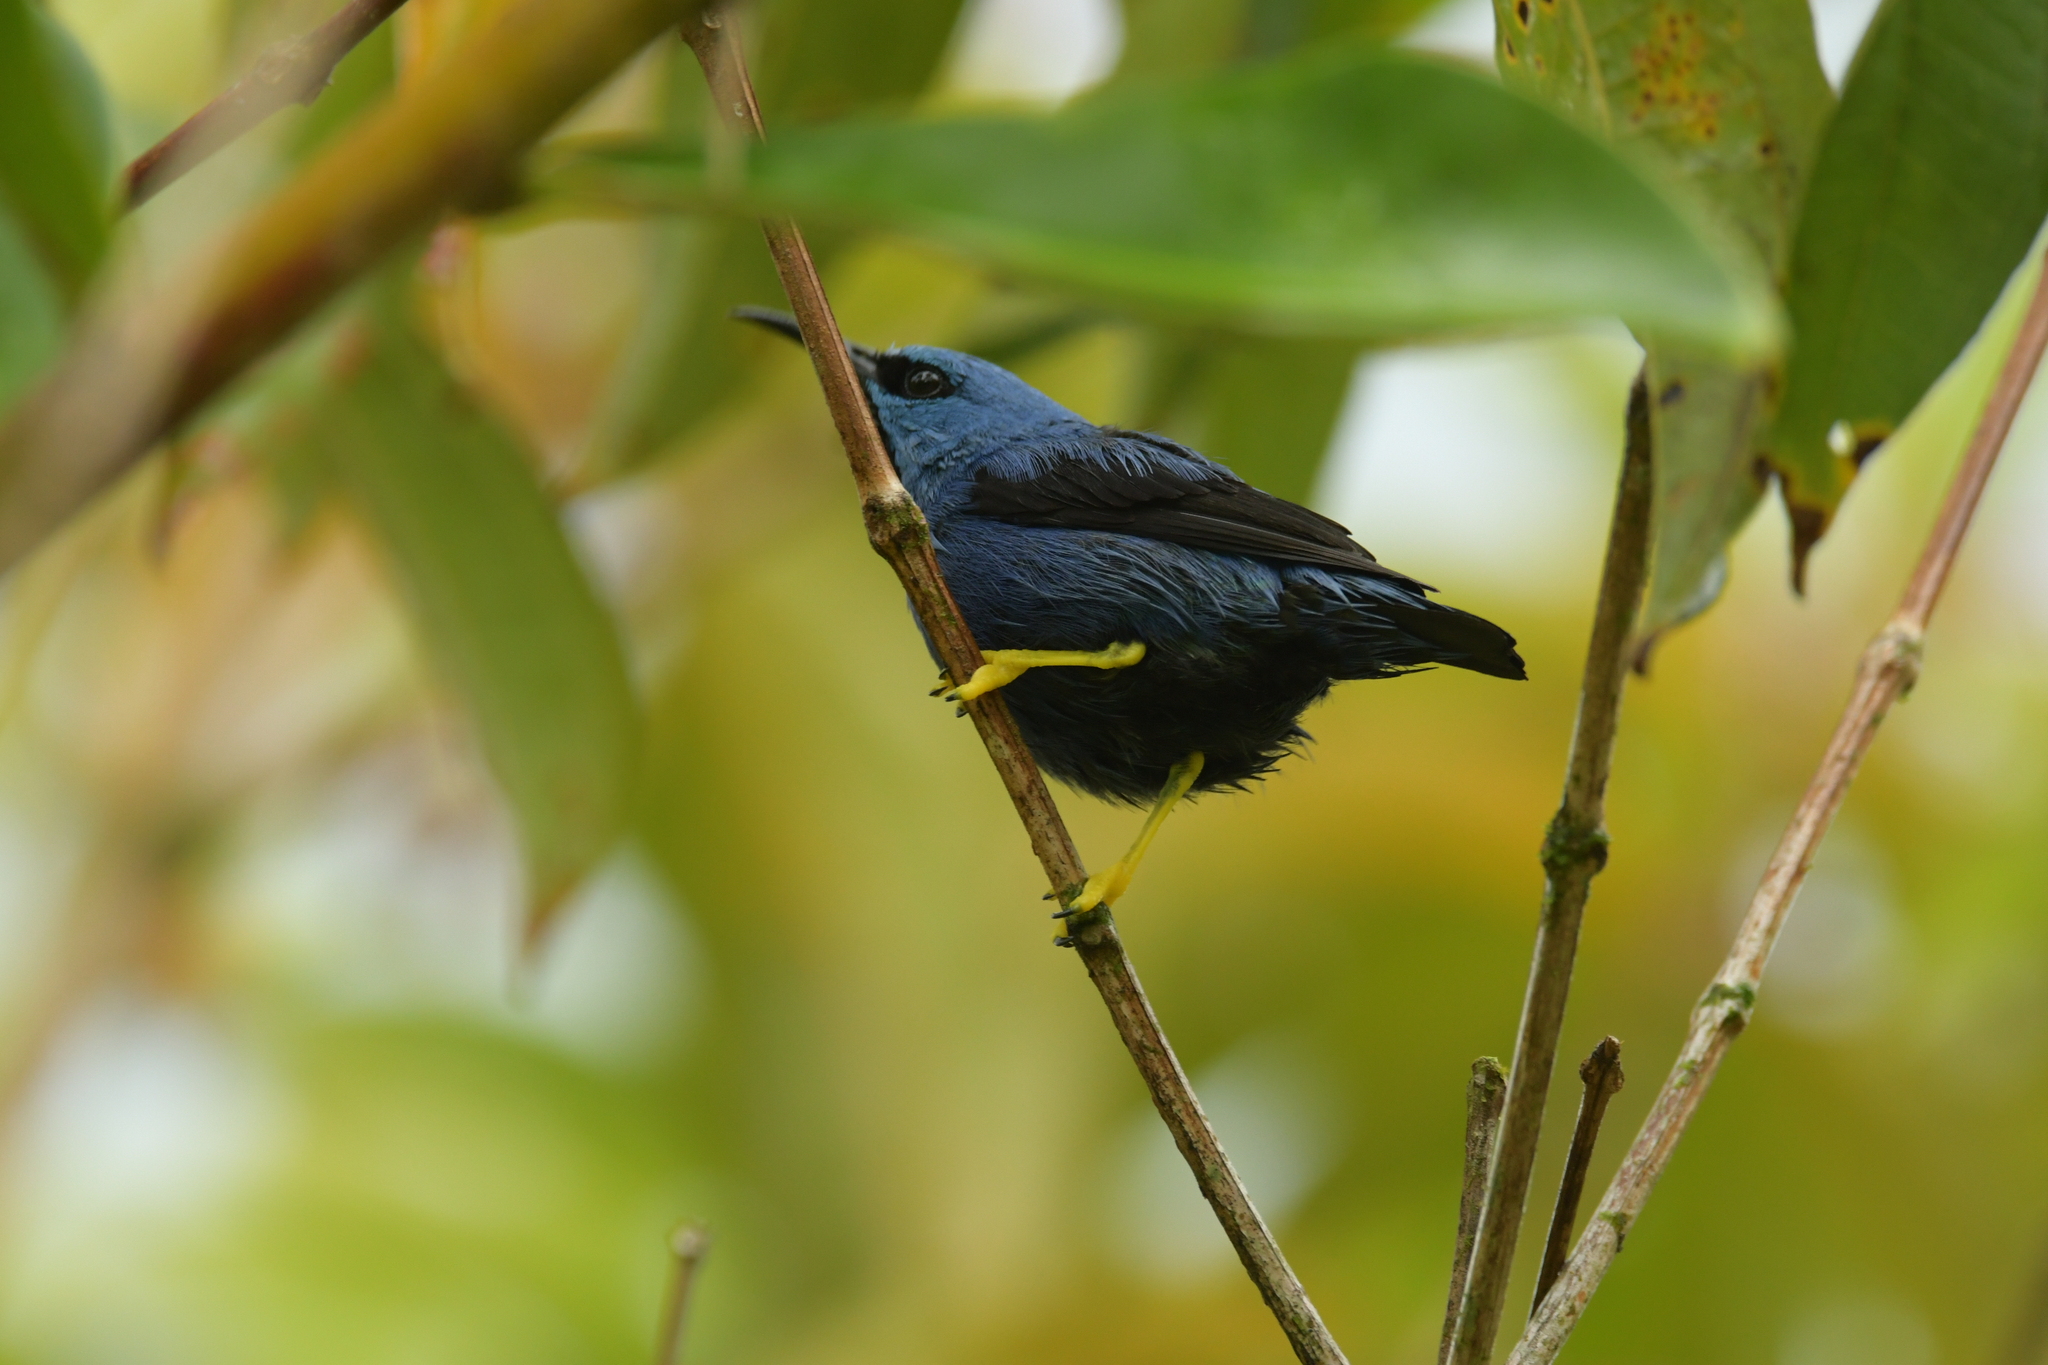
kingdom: Animalia
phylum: Chordata
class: Aves
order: Passeriformes
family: Thraupidae
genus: Cyanerpes
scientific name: Cyanerpes lucidus
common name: Shining honeycreeper
